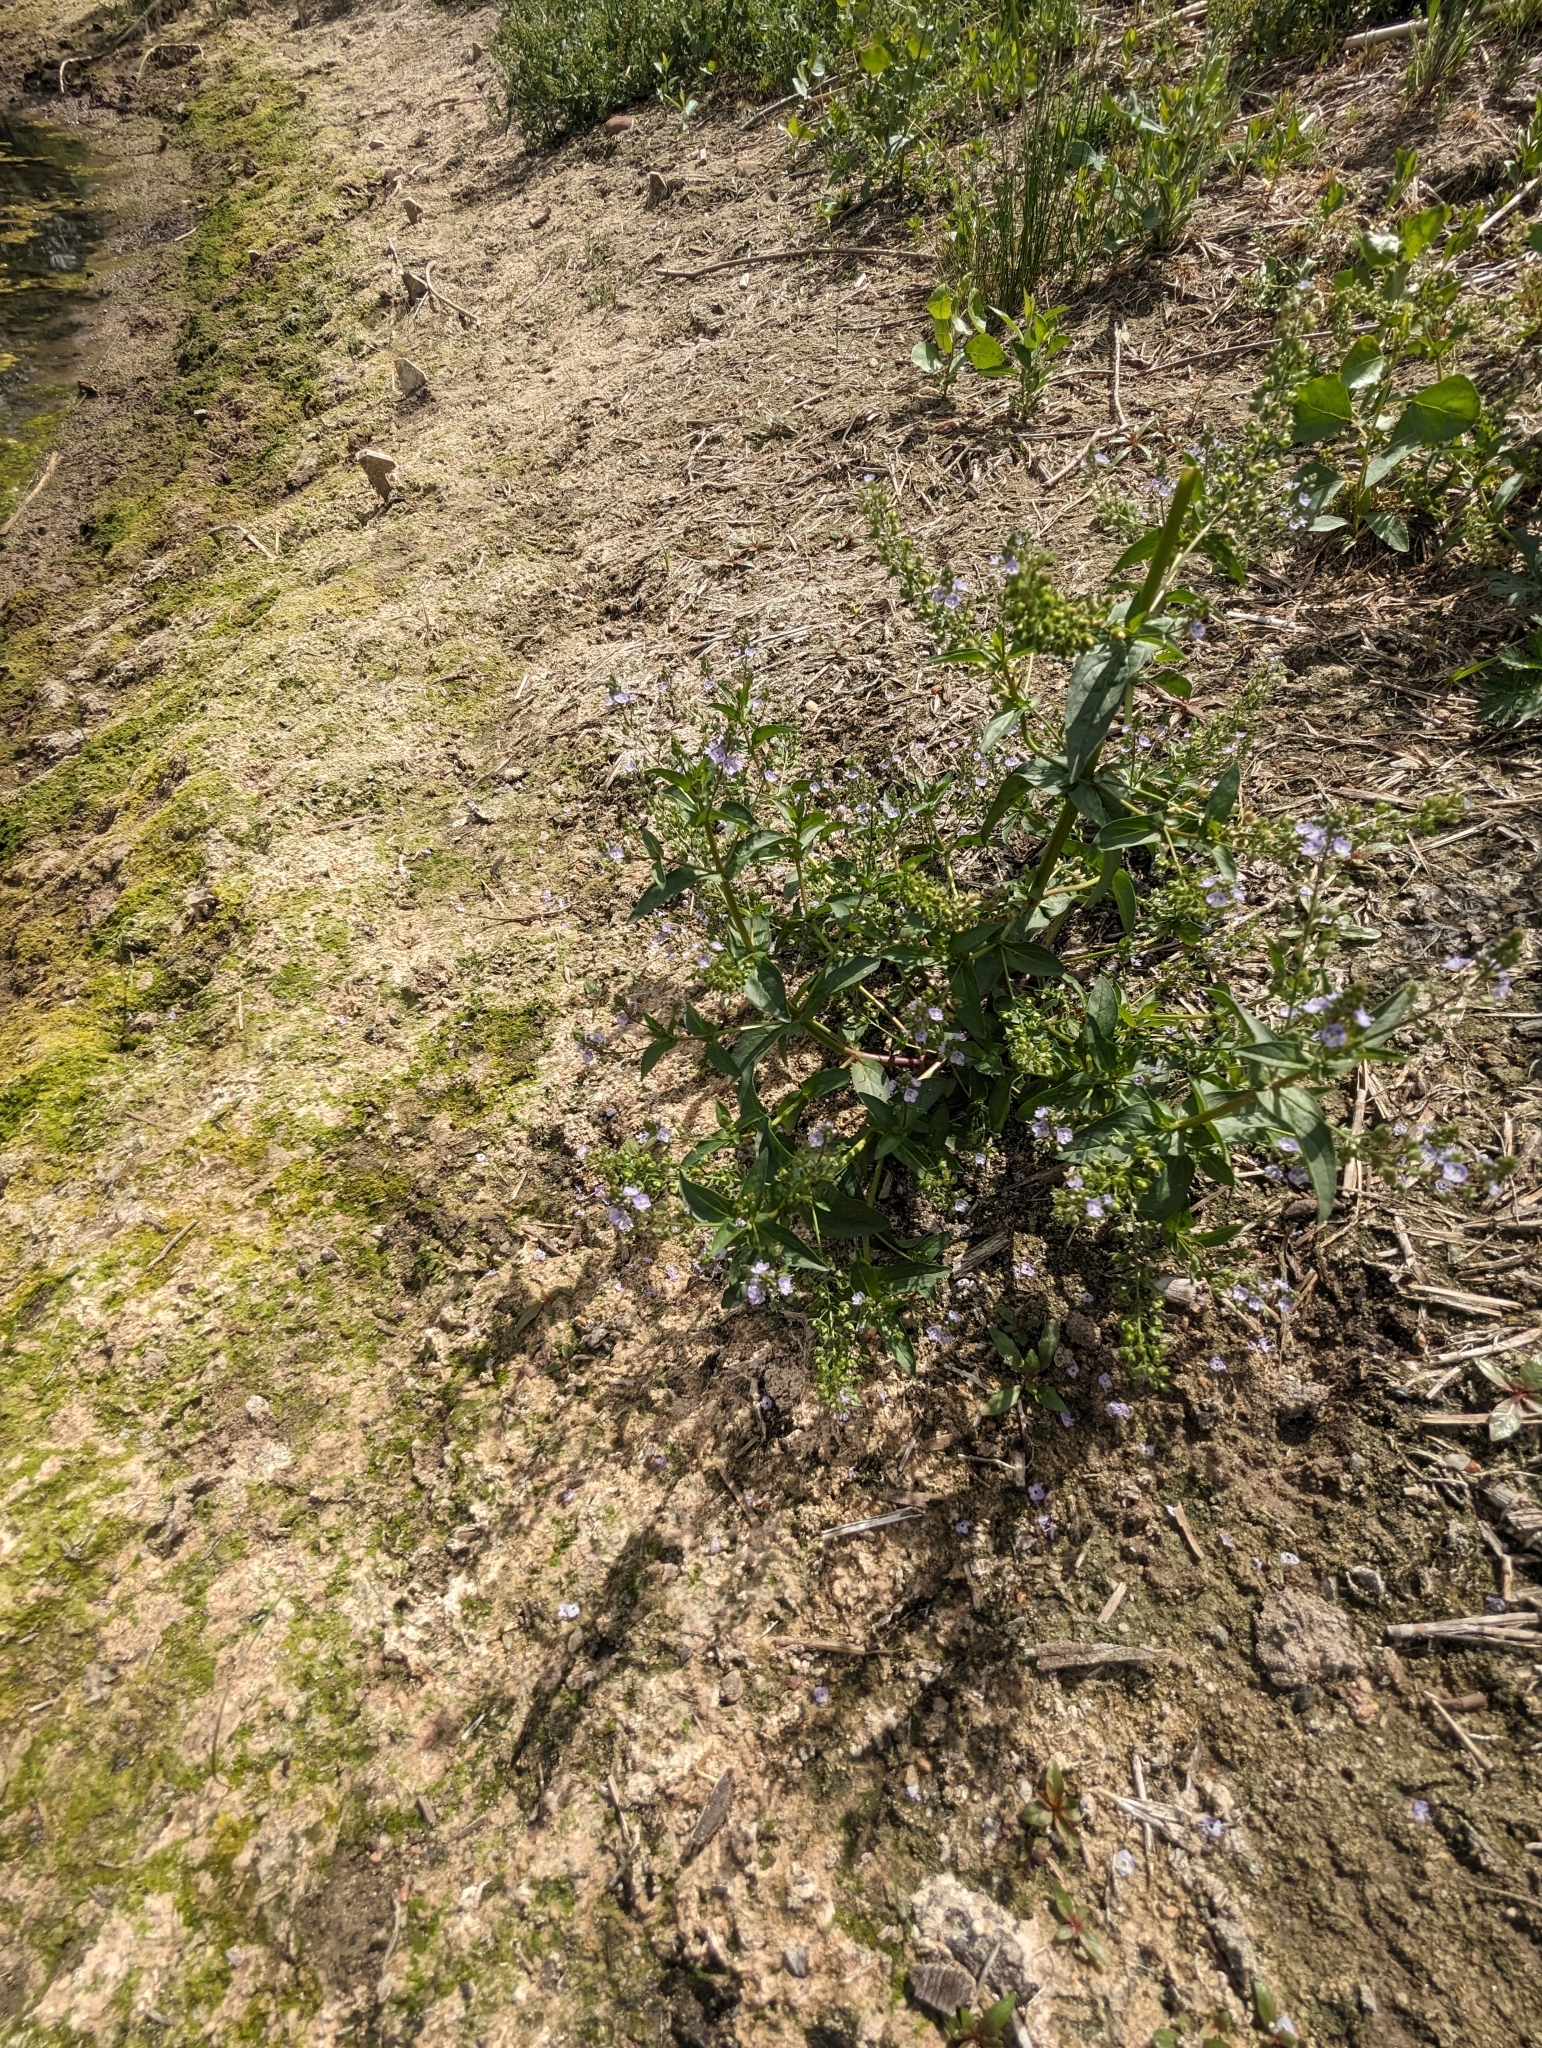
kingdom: Plantae
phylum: Tracheophyta
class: Magnoliopsida
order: Lamiales
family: Plantaginaceae
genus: Veronica
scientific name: Veronica anagallis-aquatica
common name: Water speedwell
